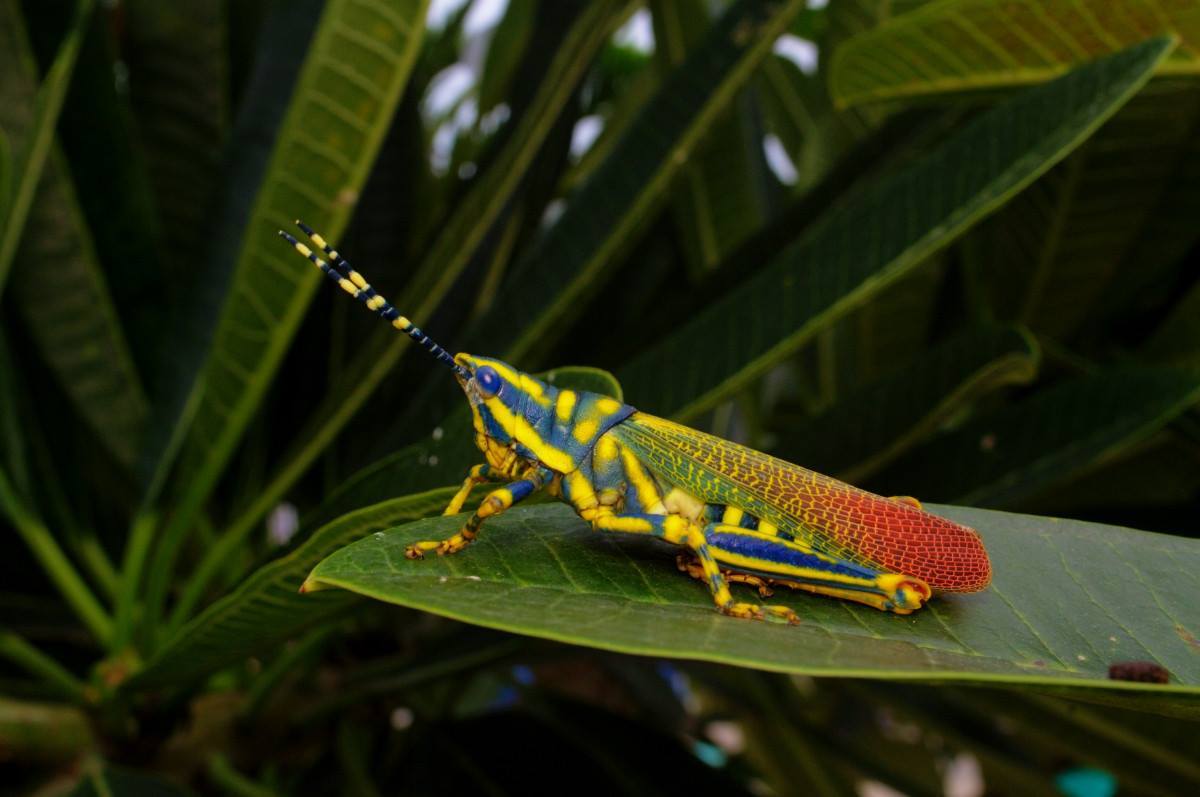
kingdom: Animalia
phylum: Arthropoda
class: Insecta
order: Orthoptera
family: Pyrgomorphidae
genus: Poekilocerus
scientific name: Poekilocerus pictus
